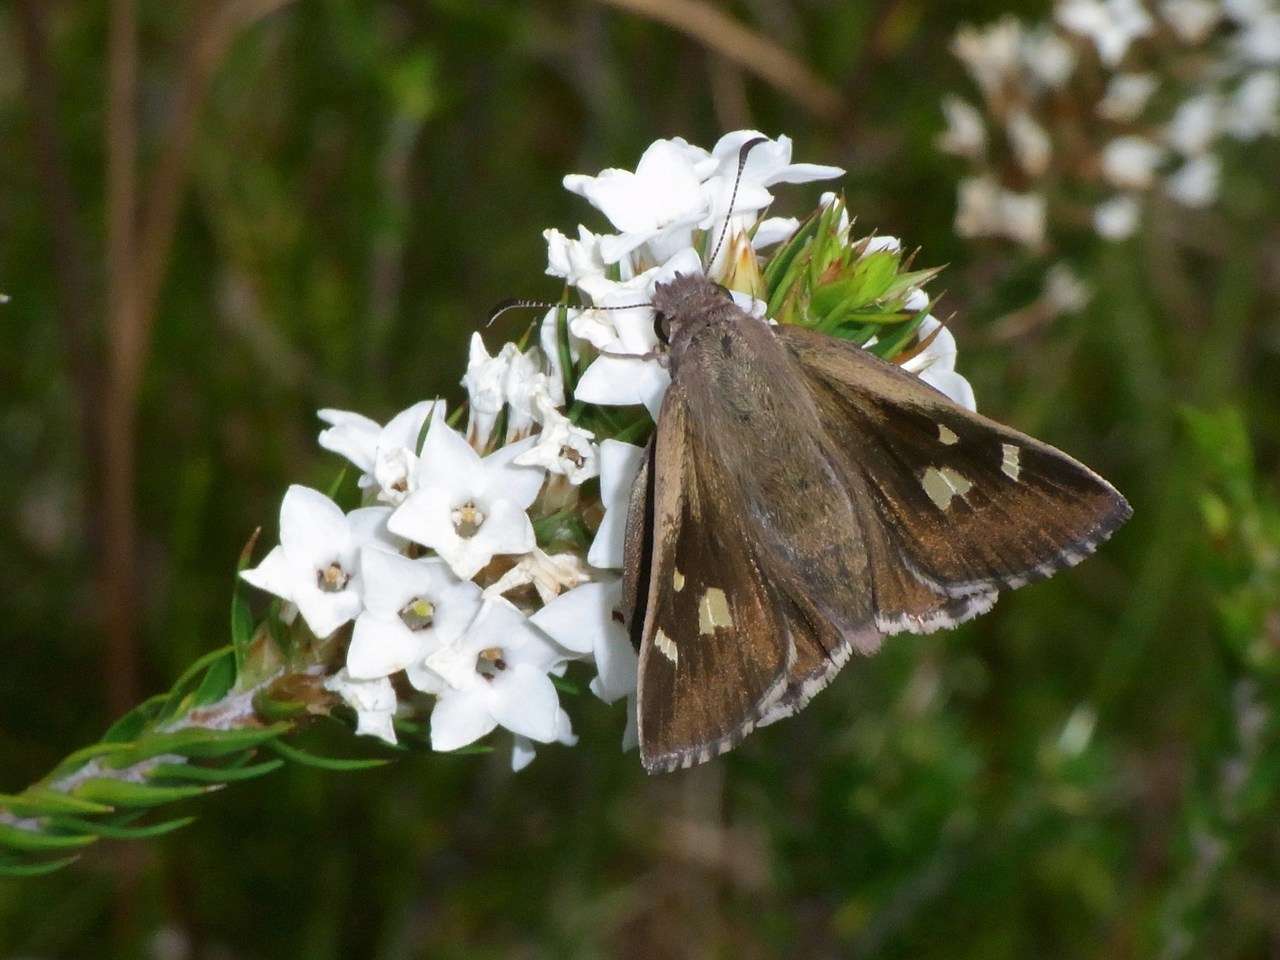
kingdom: Animalia
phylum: Arthropoda
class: Insecta
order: Lepidoptera
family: Hesperiidae
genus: Mesodina
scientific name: Mesodina halyzia
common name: Eastern iris-skipper
